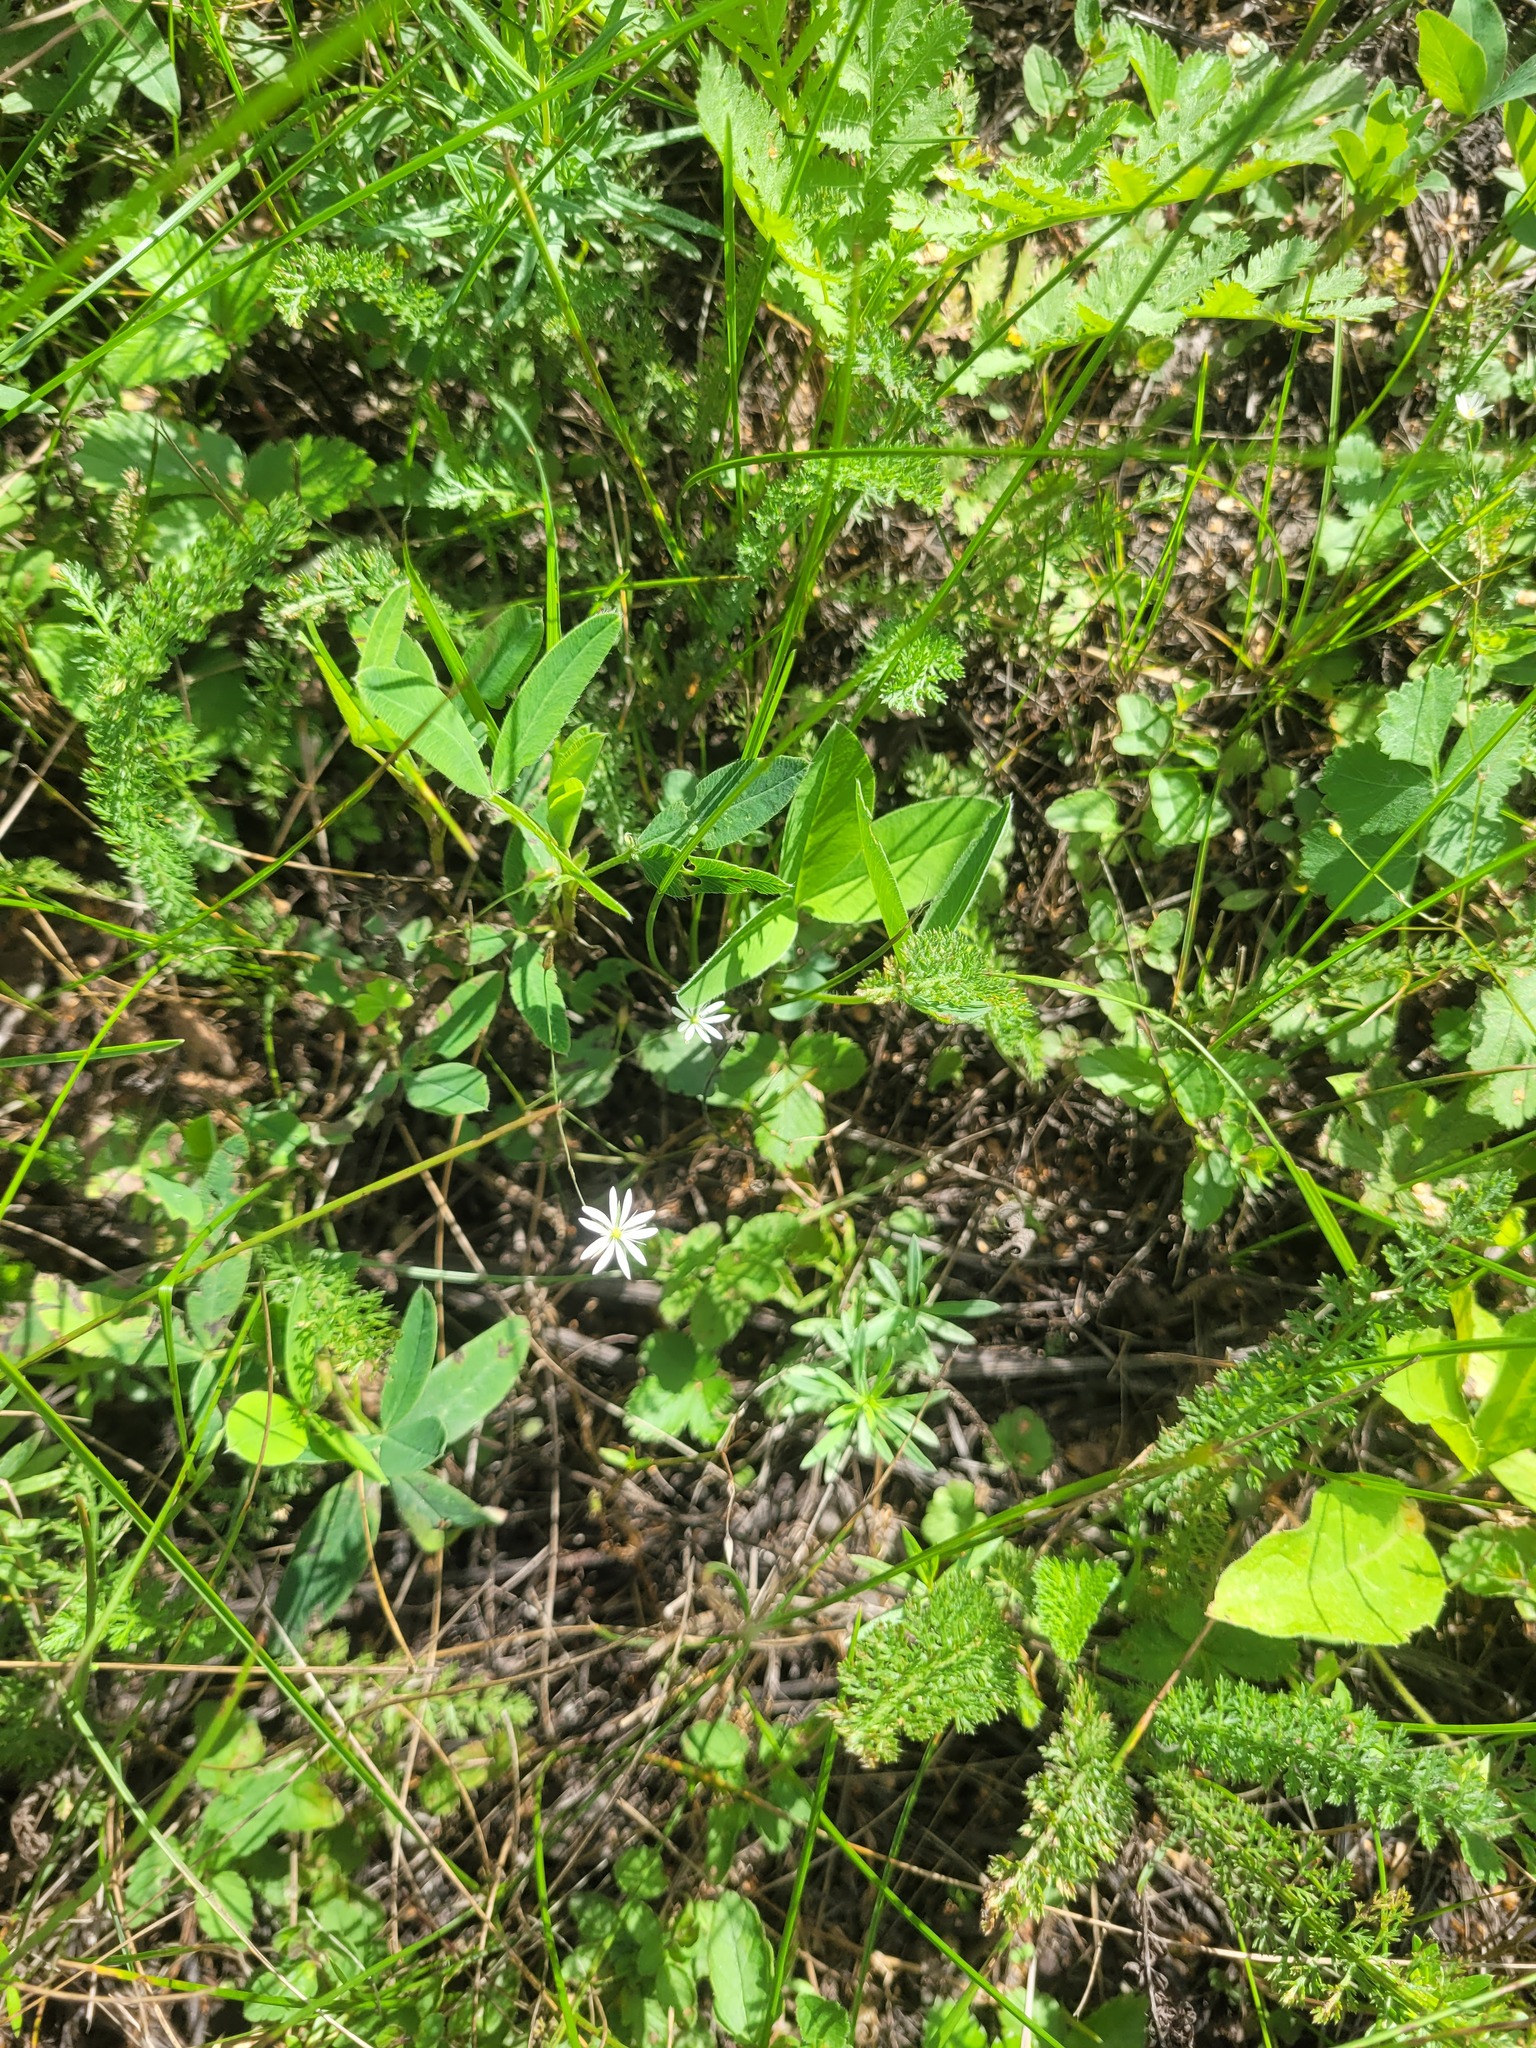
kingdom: Plantae
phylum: Tracheophyta
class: Magnoliopsida
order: Caryophyllales
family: Caryophyllaceae
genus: Stellaria
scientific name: Stellaria graminea
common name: Grass-like starwort
